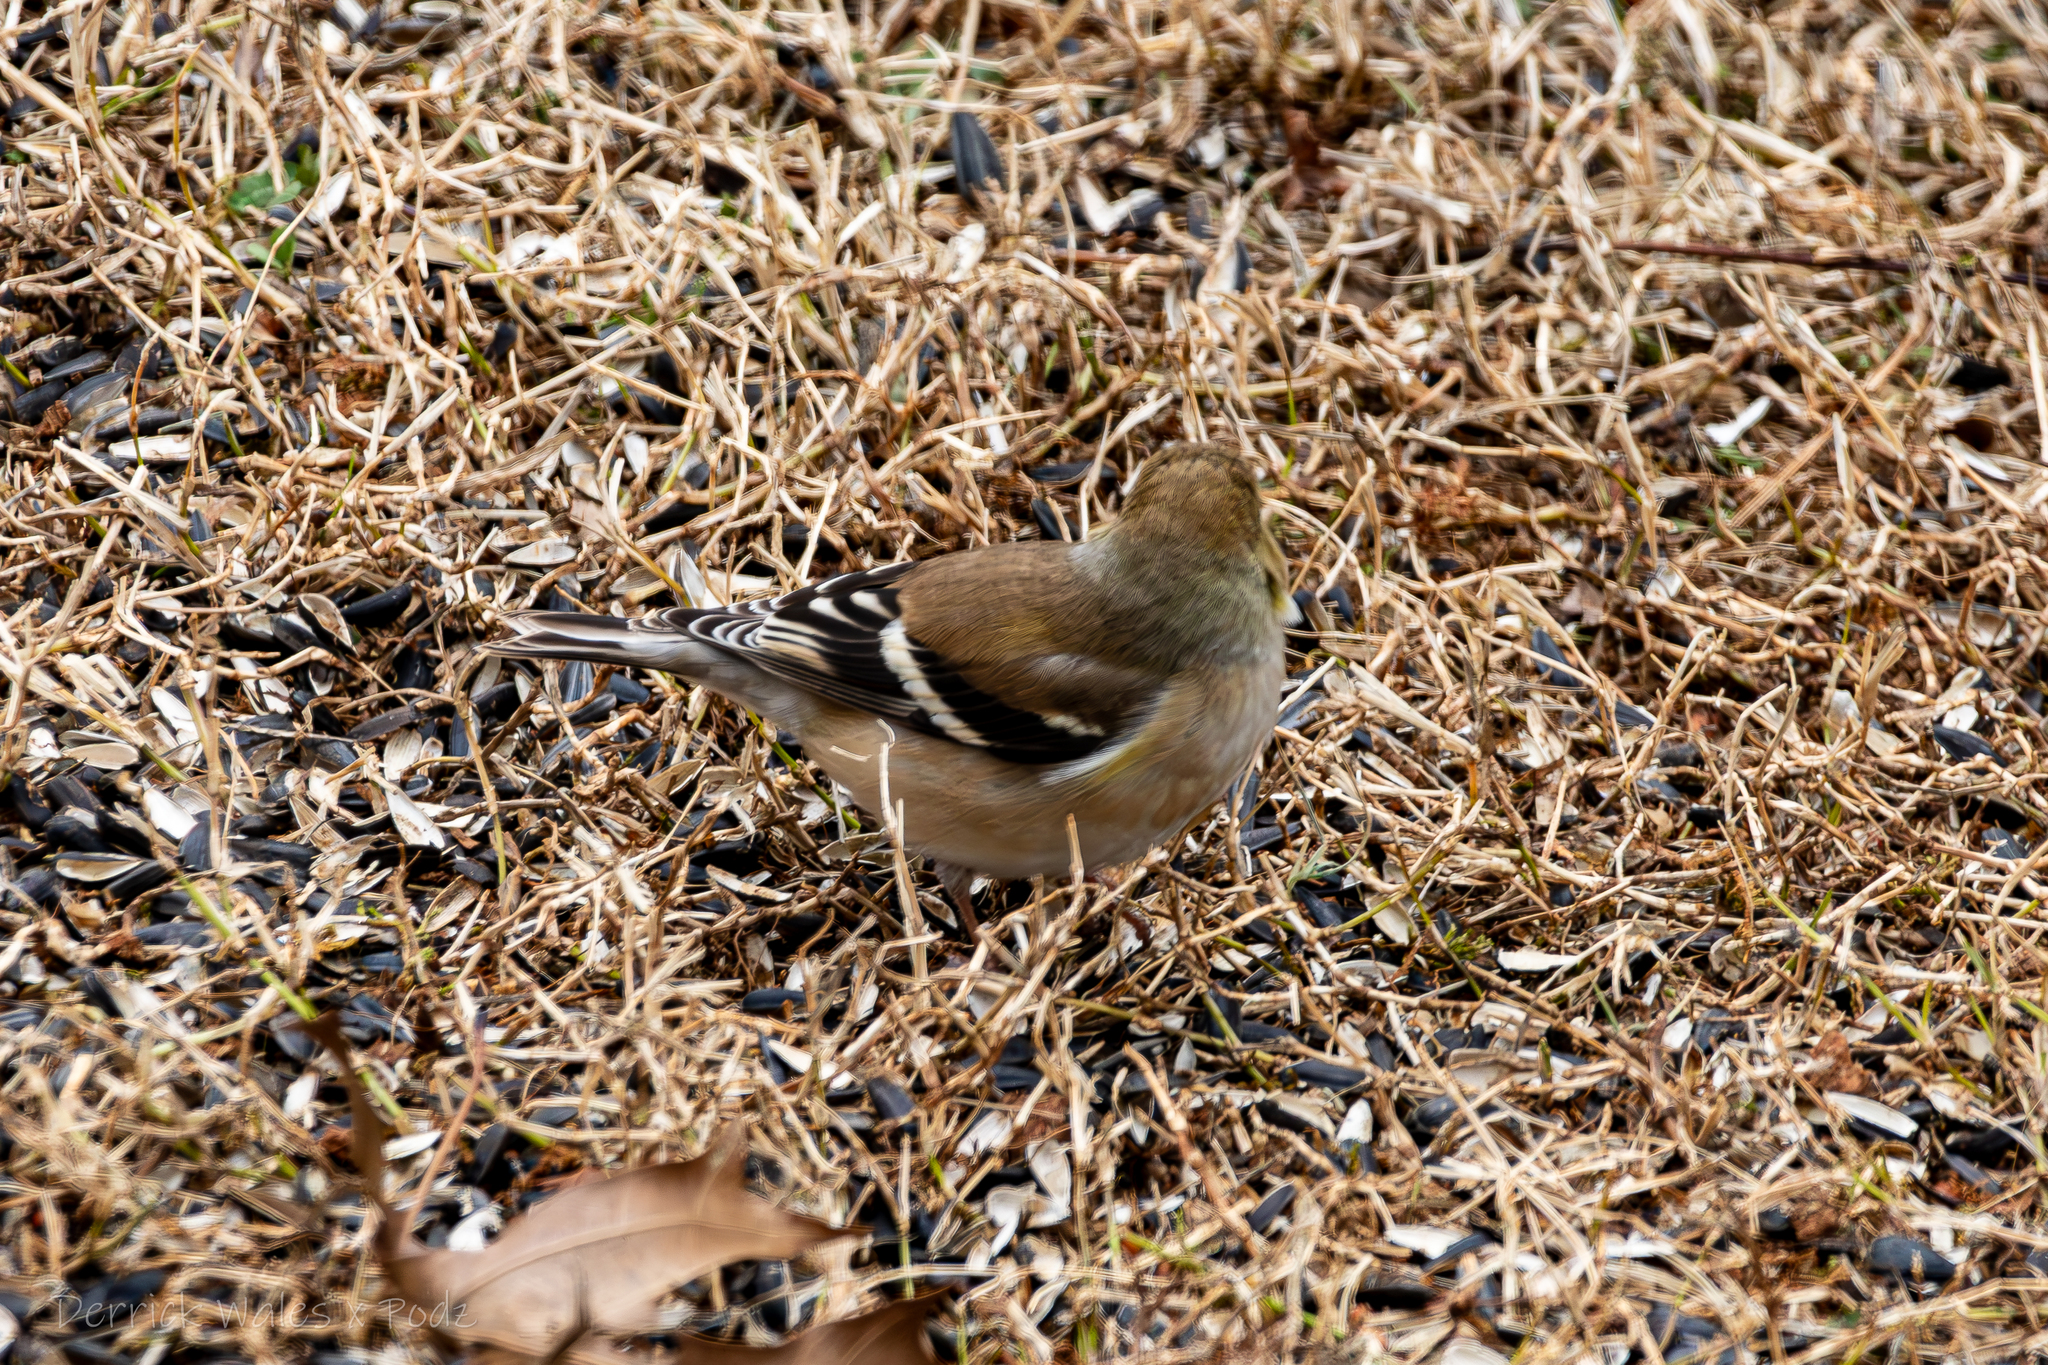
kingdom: Animalia
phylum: Chordata
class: Aves
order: Passeriformes
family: Fringillidae
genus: Spinus
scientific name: Spinus tristis
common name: American goldfinch
